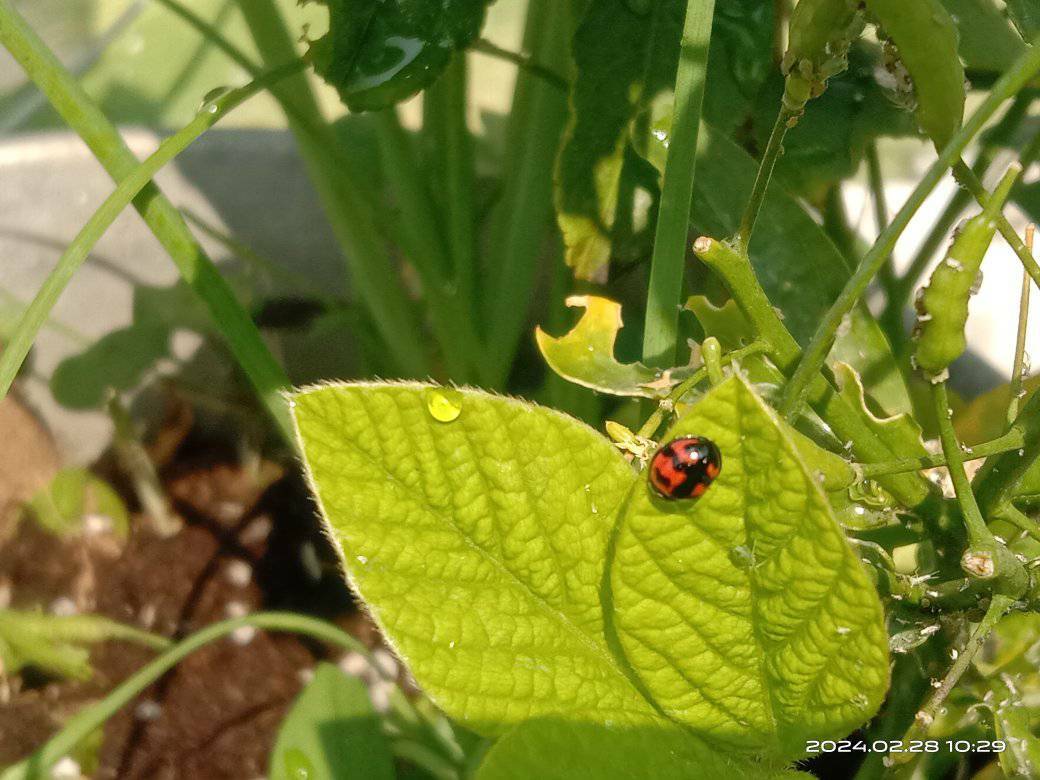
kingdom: Animalia
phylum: Arthropoda
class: Insecta
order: Coleoptera
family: Coccinellidae
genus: Cheilomenes
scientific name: Cheilomenes sexmaculata
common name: Ladybird beetle
